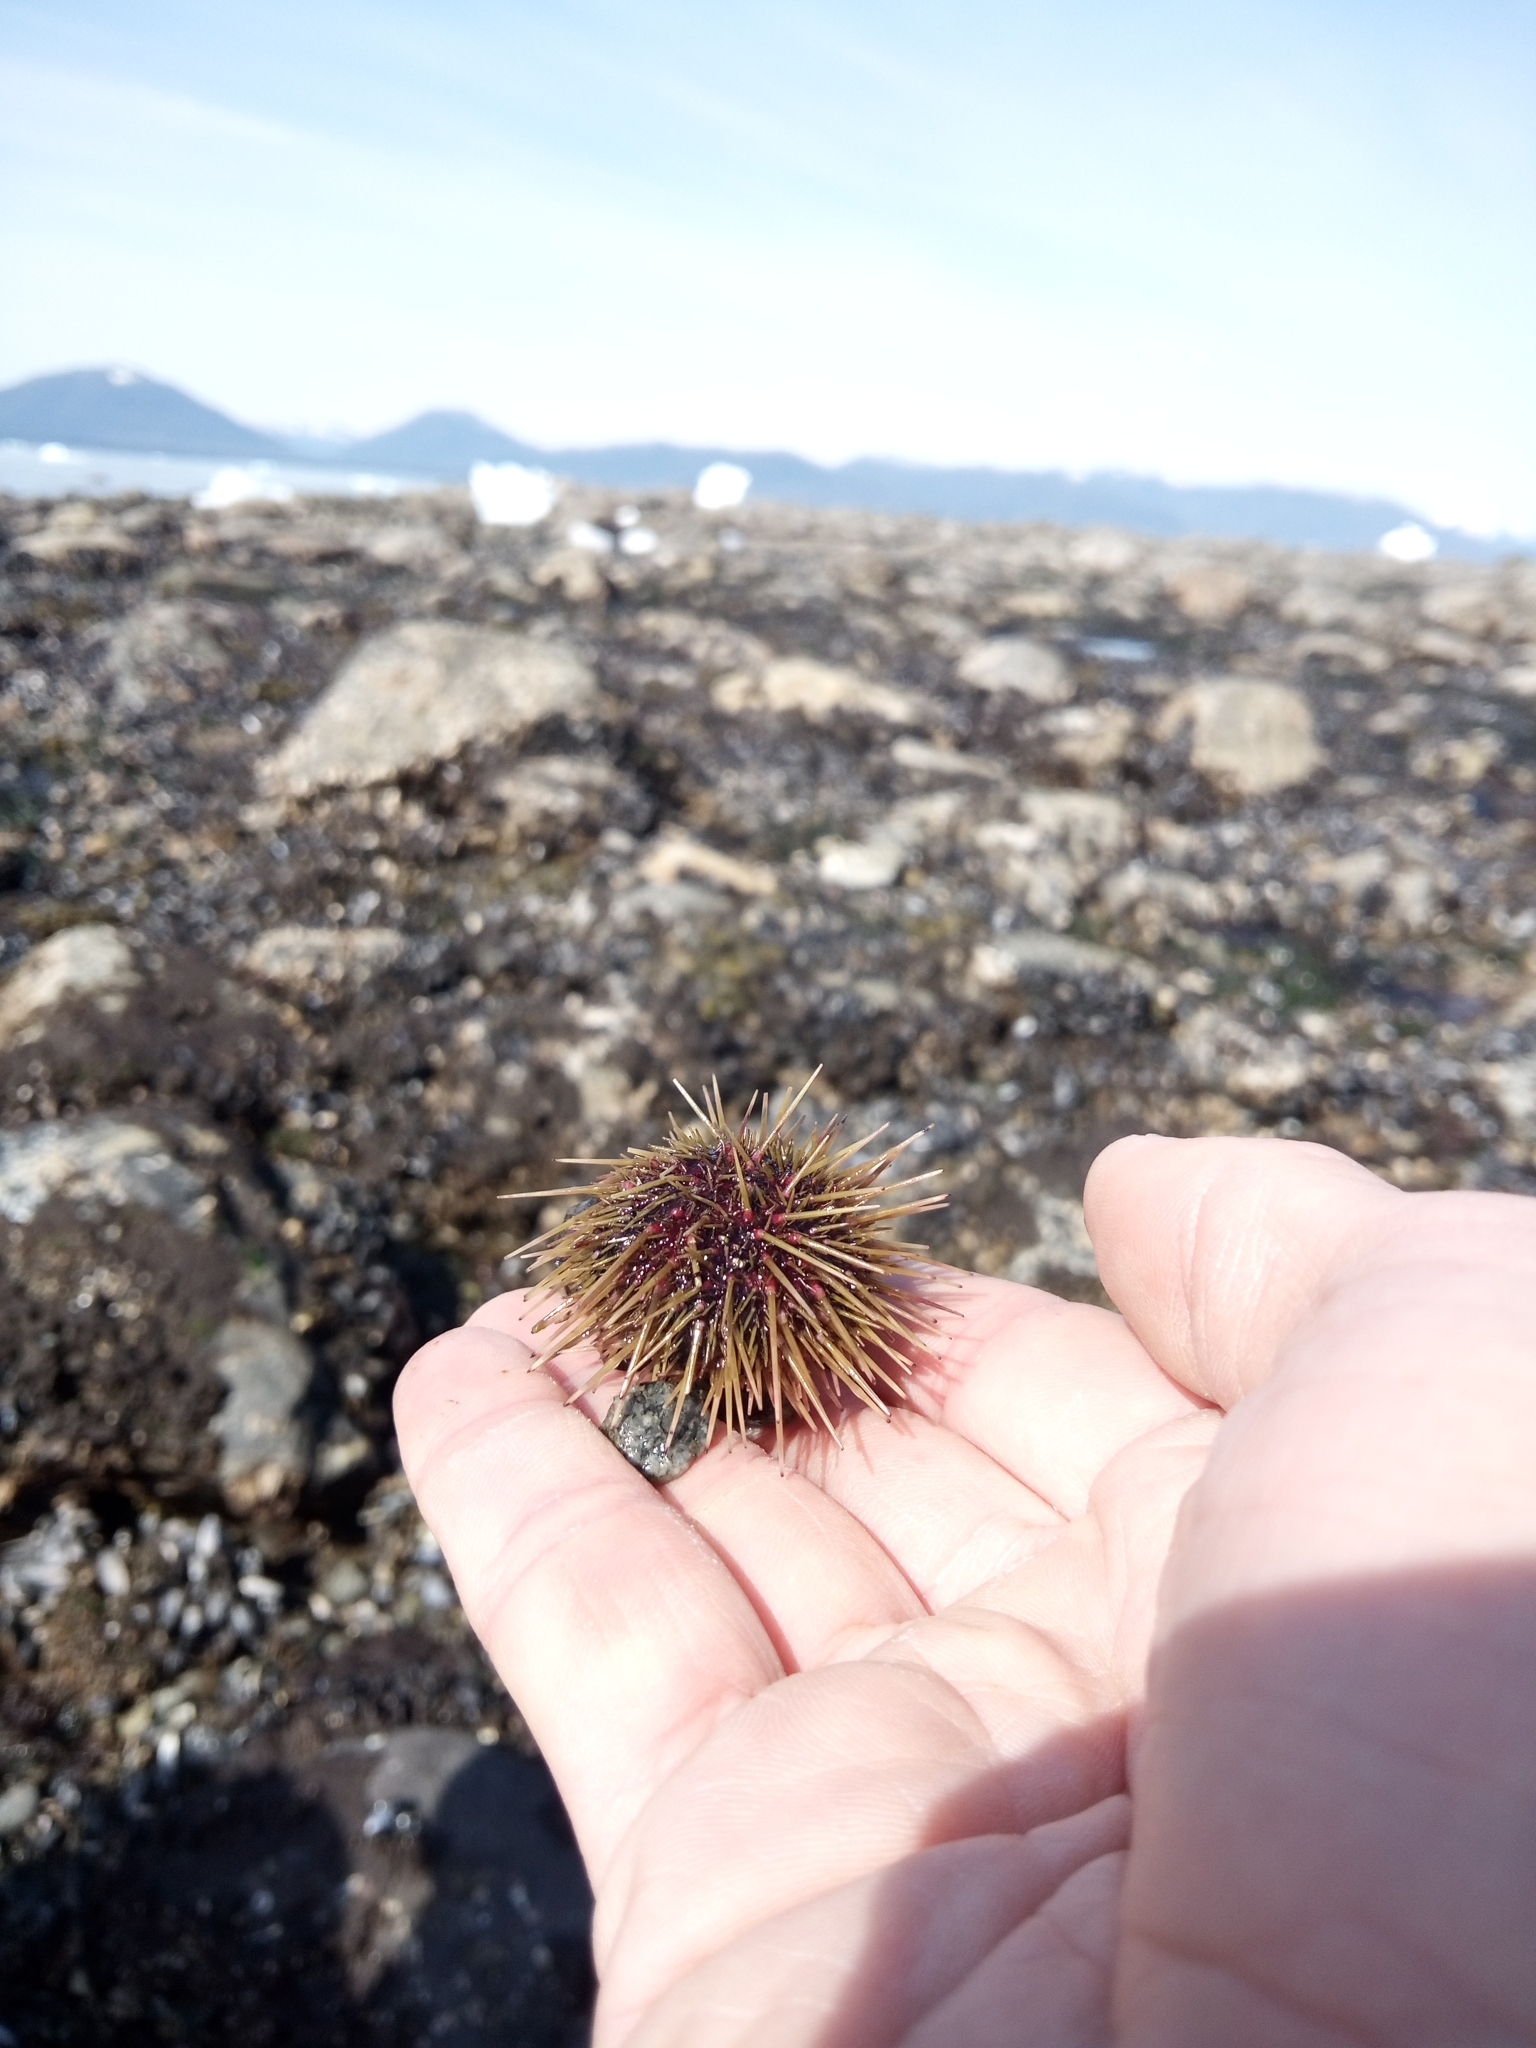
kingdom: Animalia
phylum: Echinodermata
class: Echinoidea
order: Camarodonta
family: Strongylocentrotidae
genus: Strongylocentrotus
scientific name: Strongylocentrotus droebachiensis
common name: Northern sea urchin
